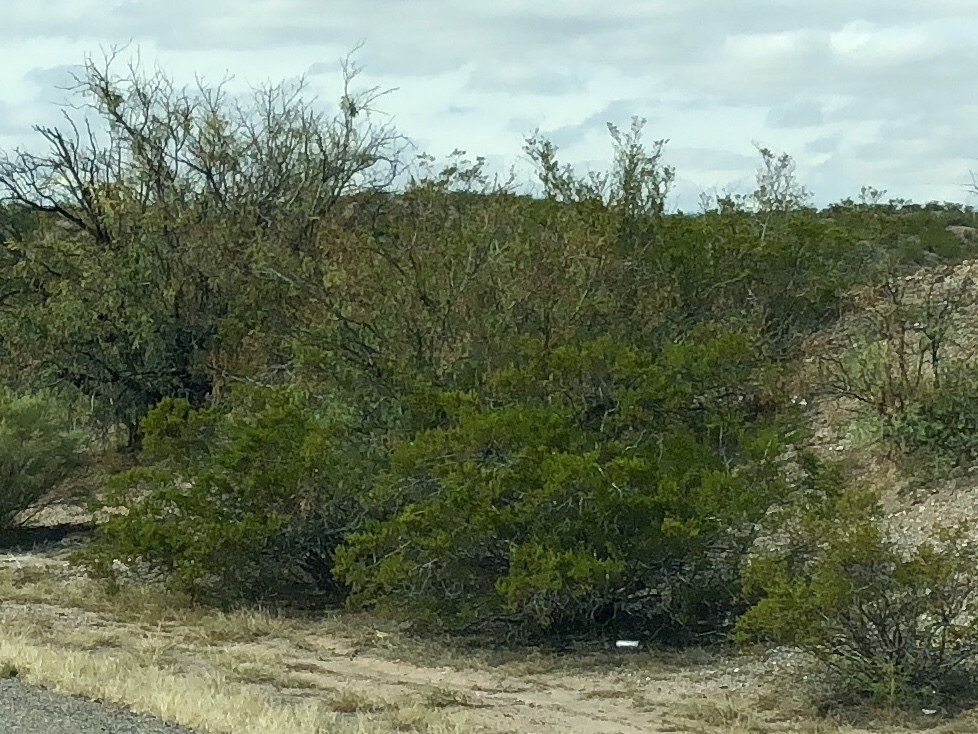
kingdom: Plantae
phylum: Tracheophyta
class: Magnoliopsida
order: Zygophyllales
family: Zygophyllaceae
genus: Larrea
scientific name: Larrea tridentata
